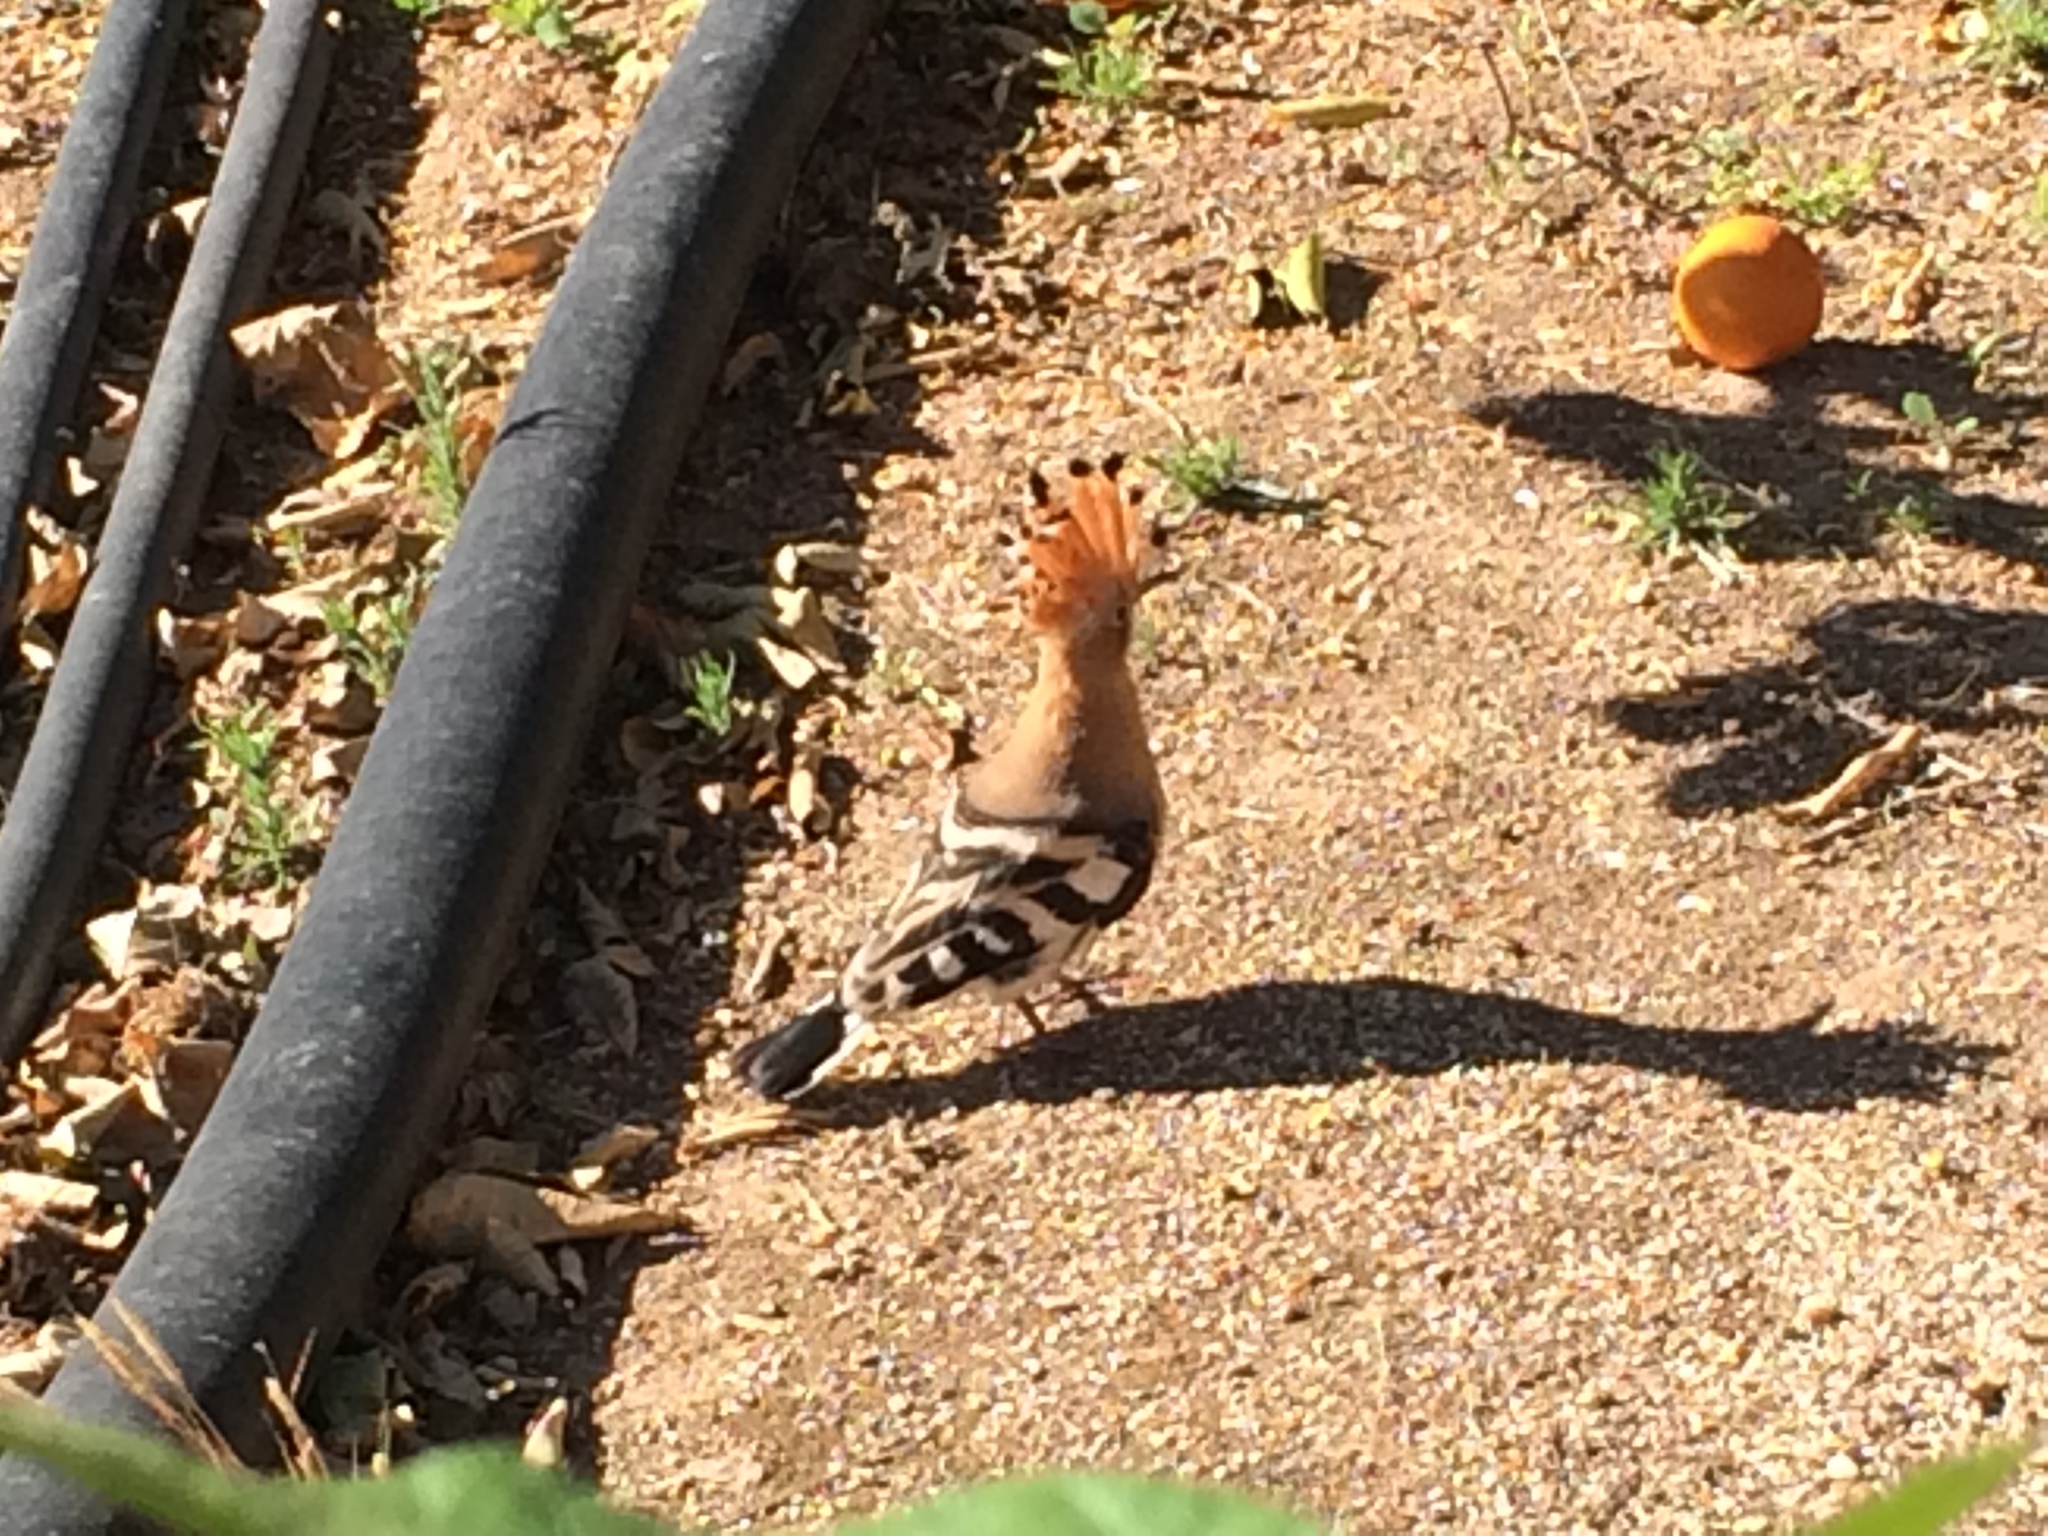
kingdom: Animalia
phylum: Chordata
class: Aves
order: Bucerotiformes
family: Upupidae
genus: Upupa
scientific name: Upupa epops
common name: Eurasian hoopoe
